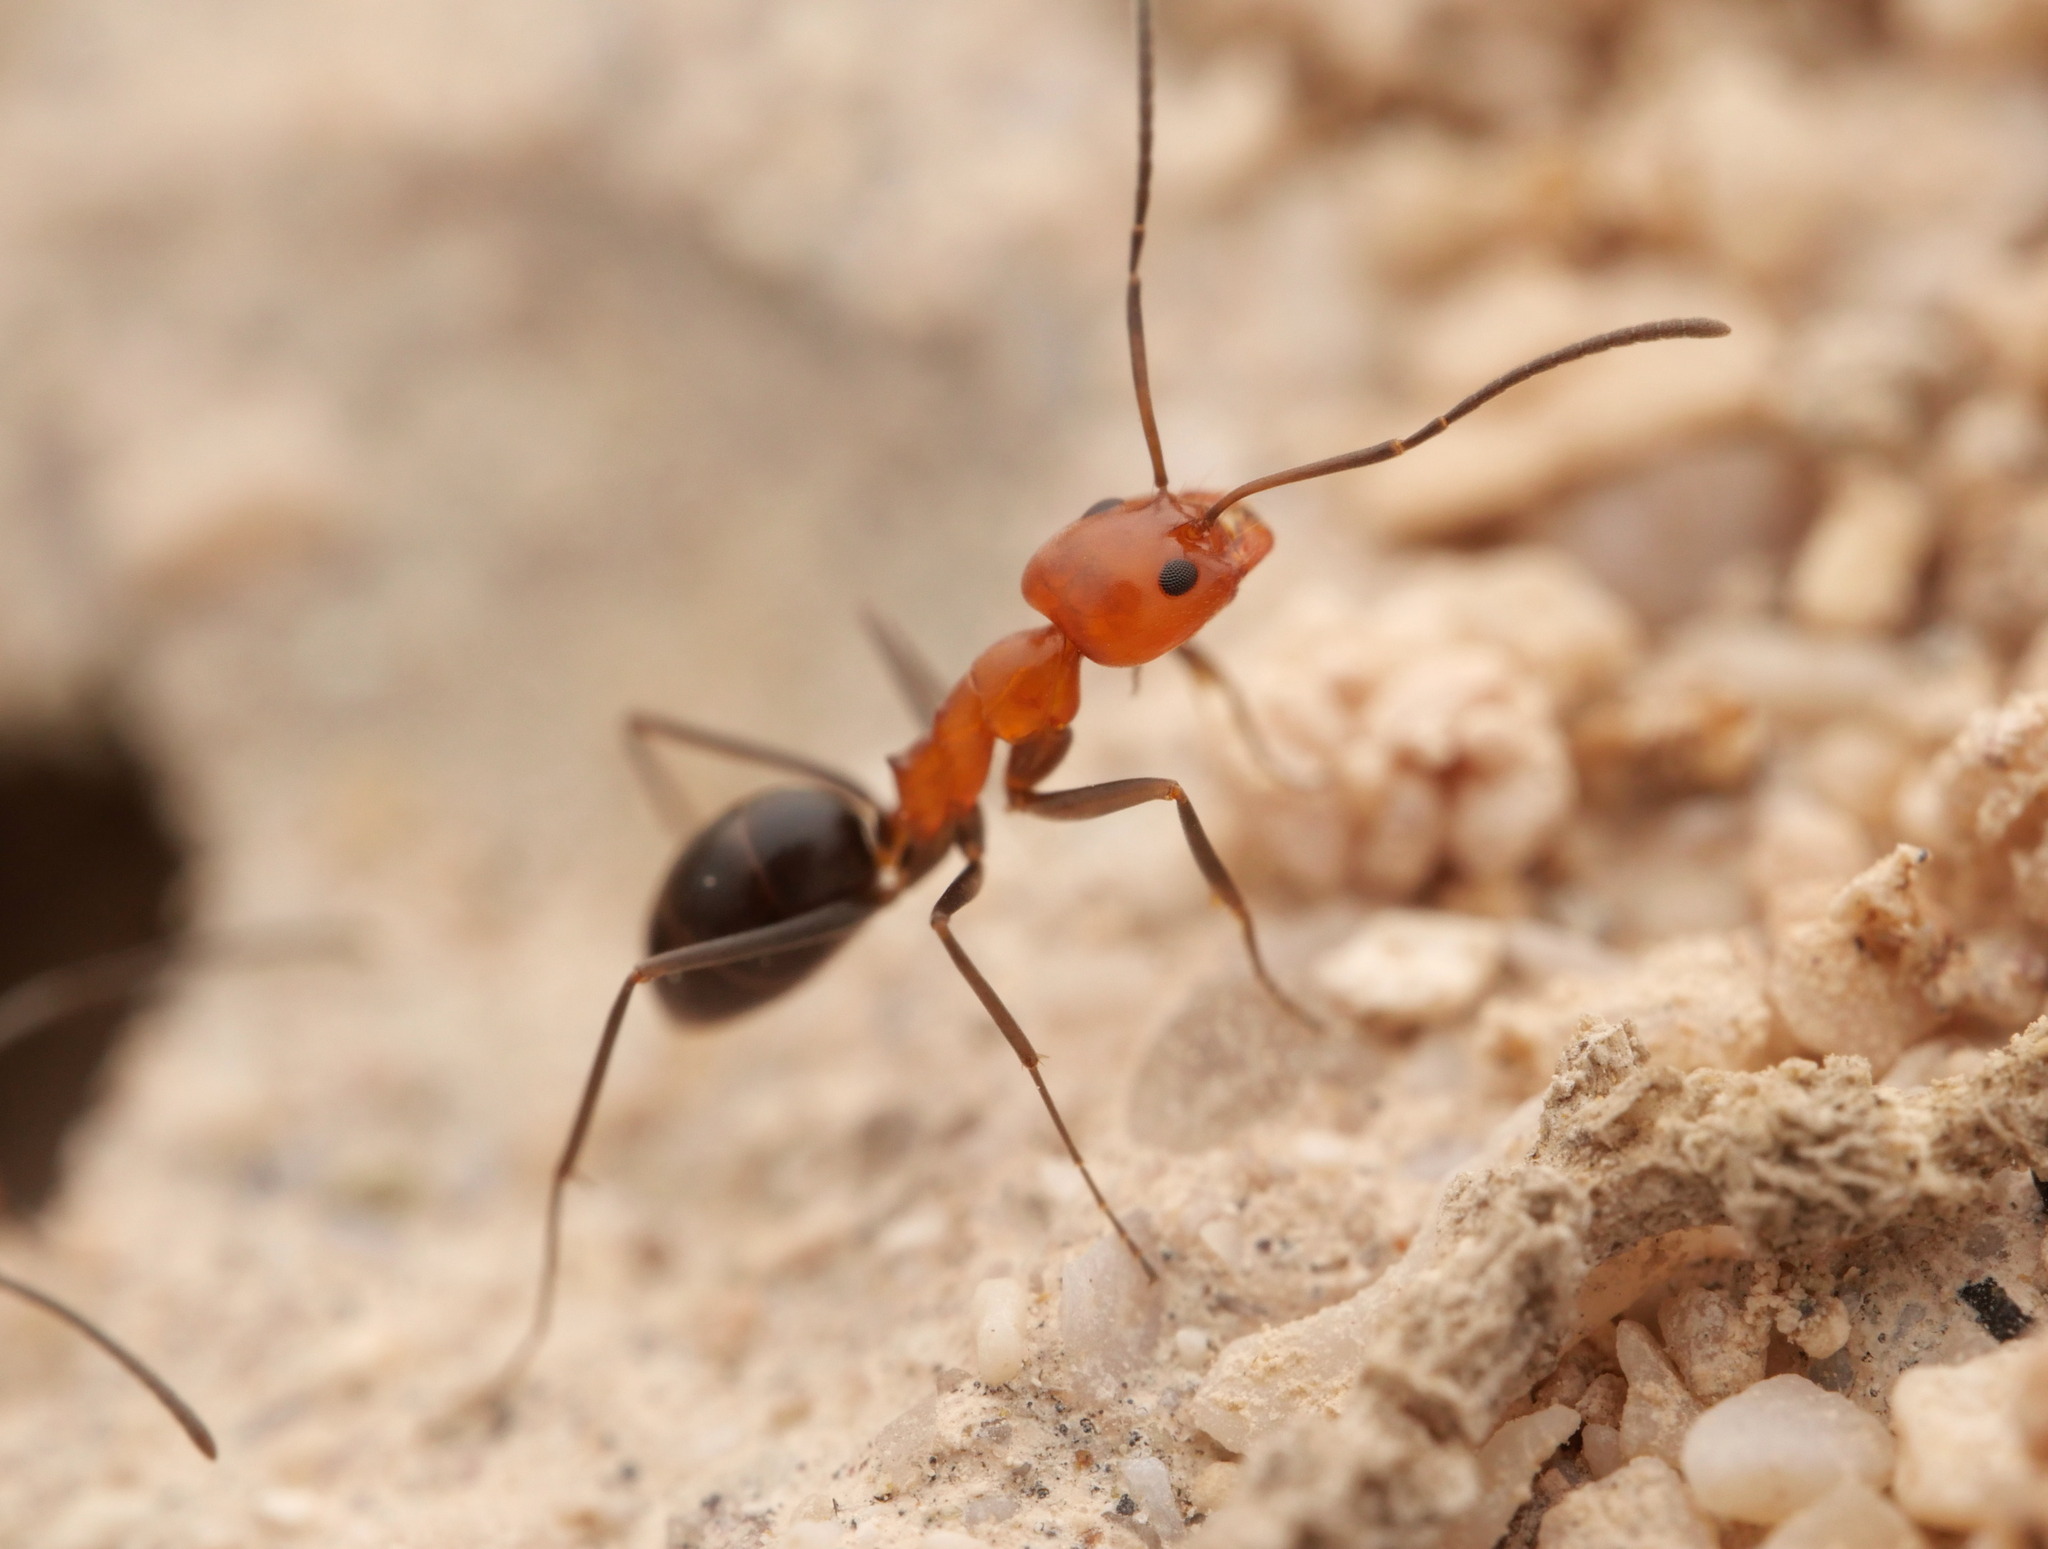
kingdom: Animalia
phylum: Arthropoda
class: Insecta
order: Hymenoptera
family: Formicidae
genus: Dorymyrmex
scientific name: Dorymyrmex bicolor
